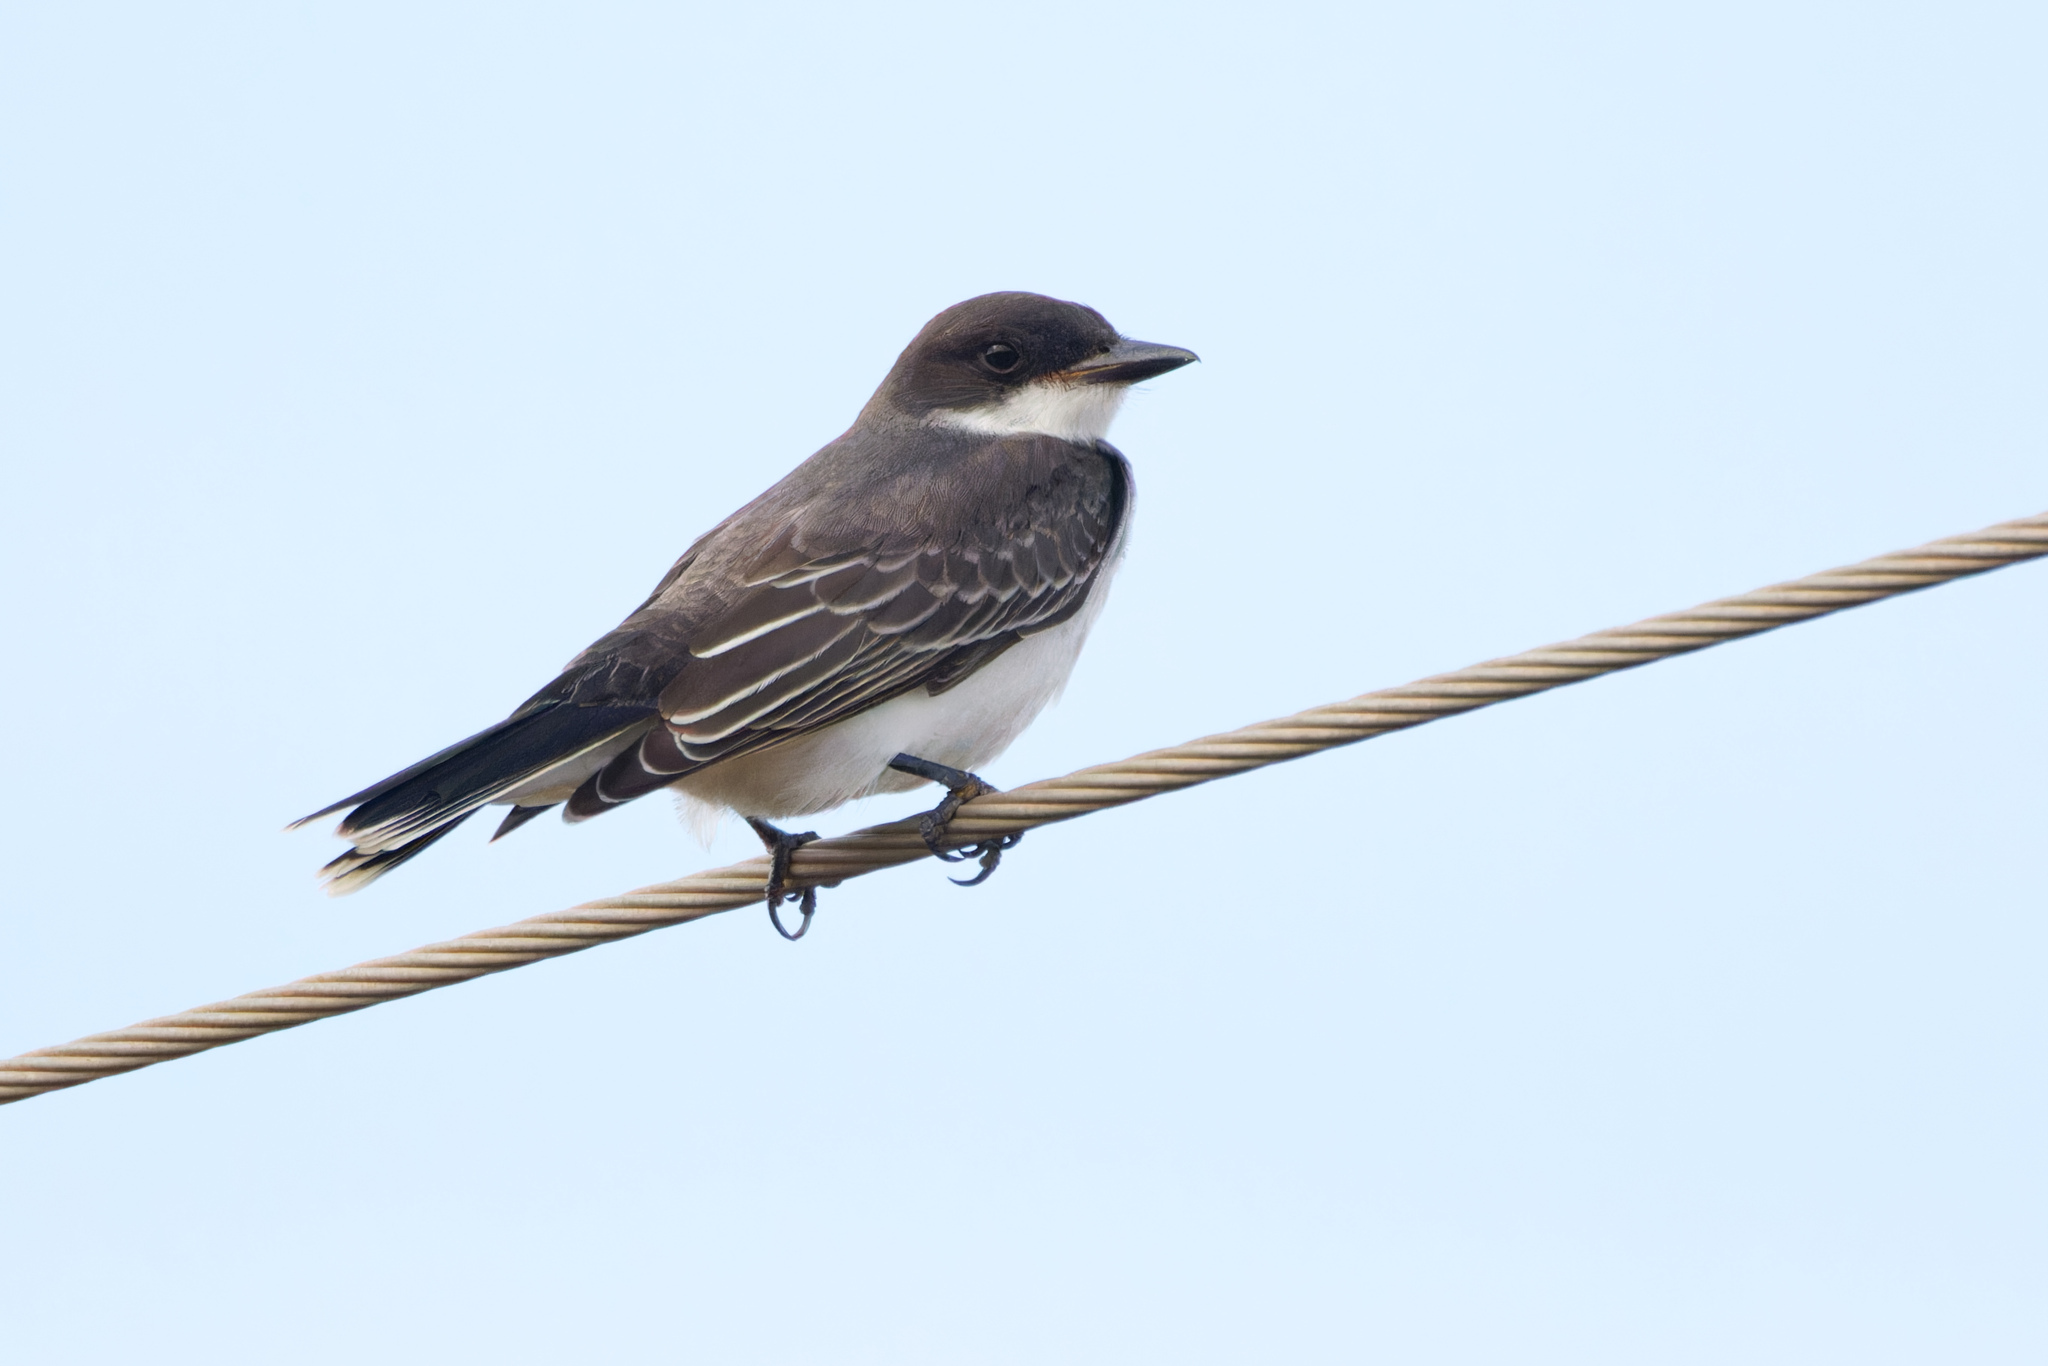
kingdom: Animalia
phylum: Chordata
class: Aves
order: Passeriformes
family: Tyrannidae
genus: Tyrannus
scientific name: Tyrannus tyrannus
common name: Eastern kingbird
